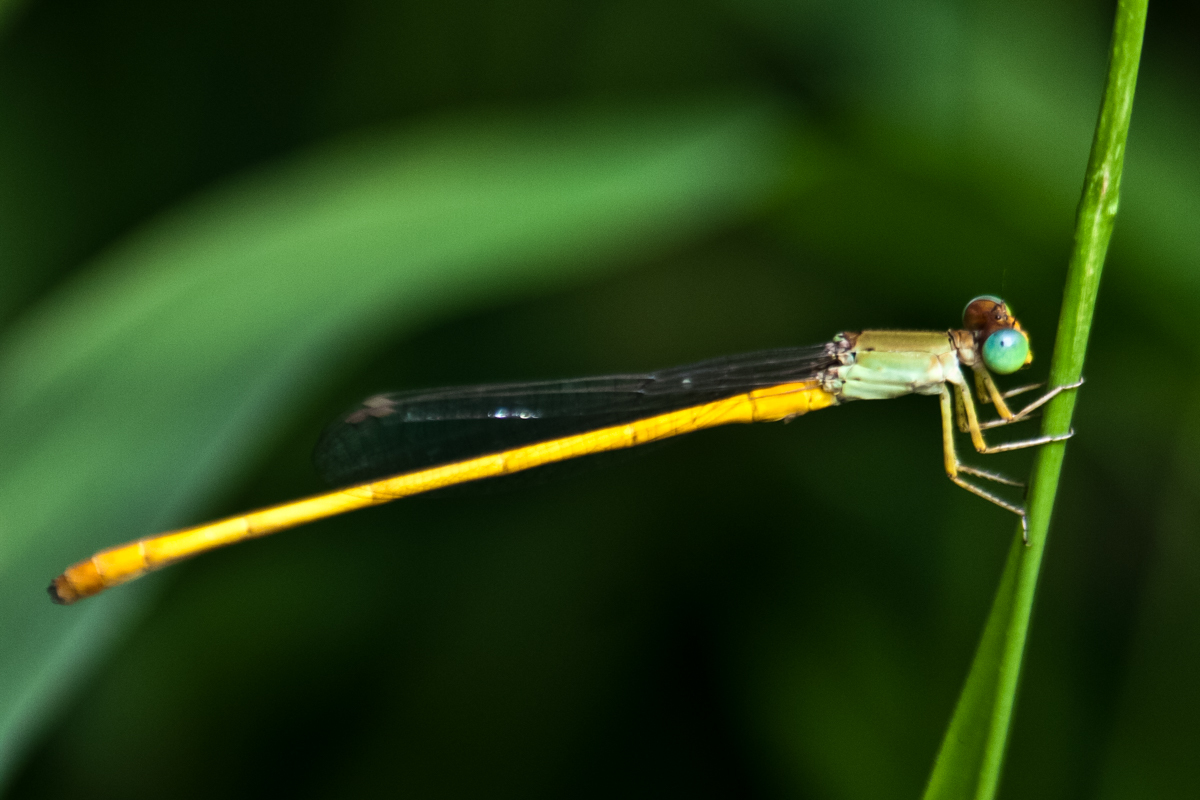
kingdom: Animalia
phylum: Arthropoda
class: Insecta
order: Odonata
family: Coenagrionidae
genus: Ceriagrion
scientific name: Ceriagrion calamineum
